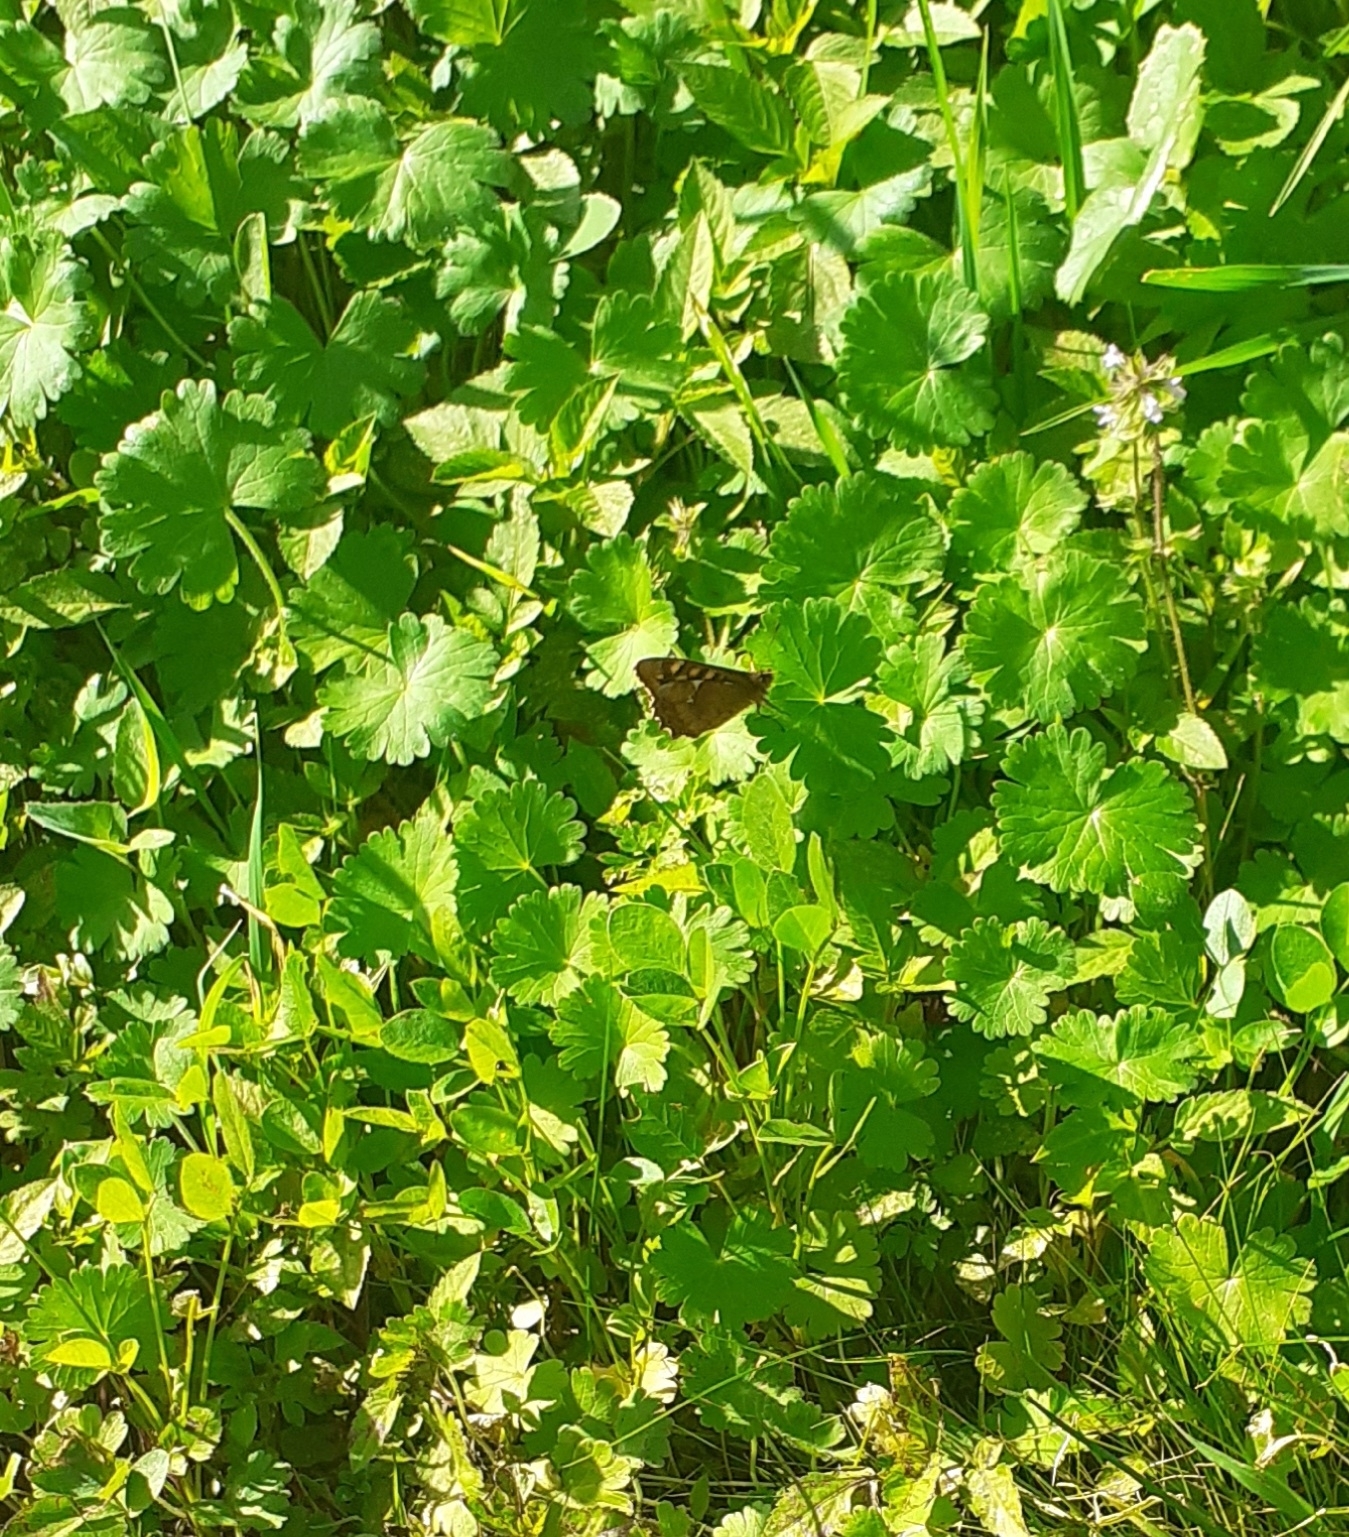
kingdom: Animalia
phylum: Arthropoda
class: Insecta
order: Lepidoptera
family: Nymphalidae
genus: Pararge
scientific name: Pararge aegeria
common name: Speckled wood
